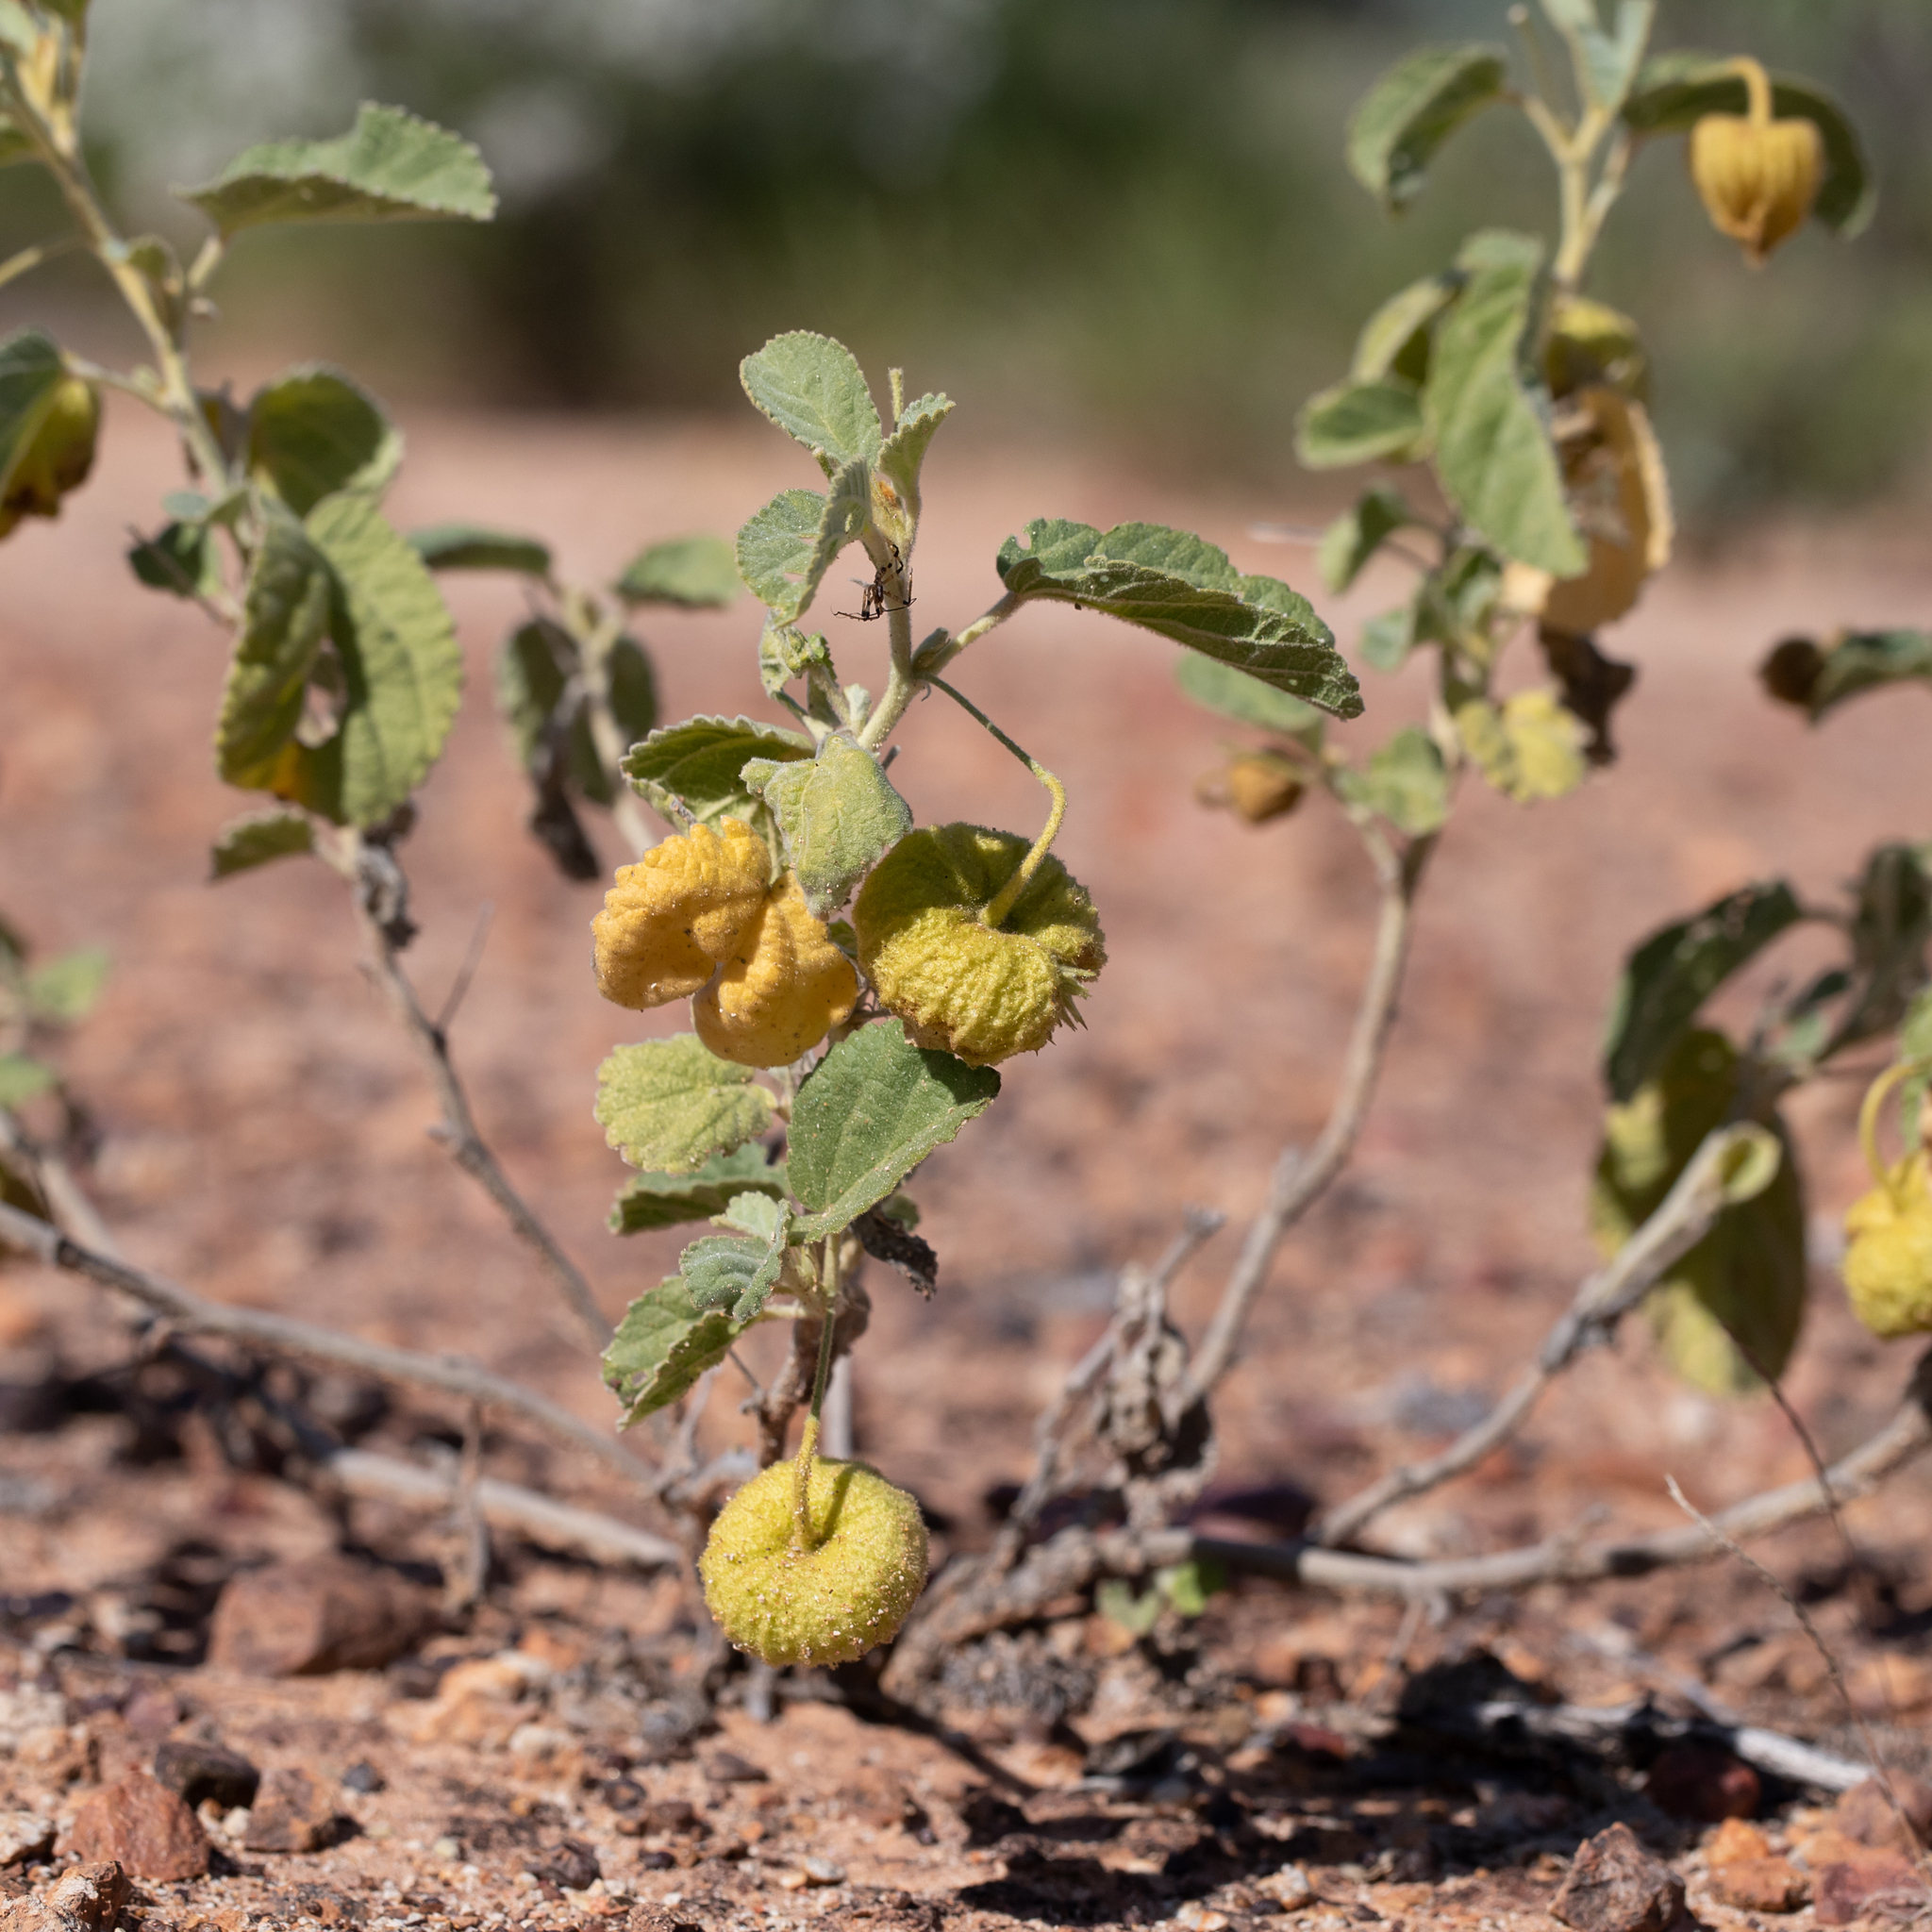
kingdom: Plantae
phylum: Tracheophyta
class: Magnoliopsida
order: Malvales
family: Malvaceae
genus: Sida
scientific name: Sida platycalyx
